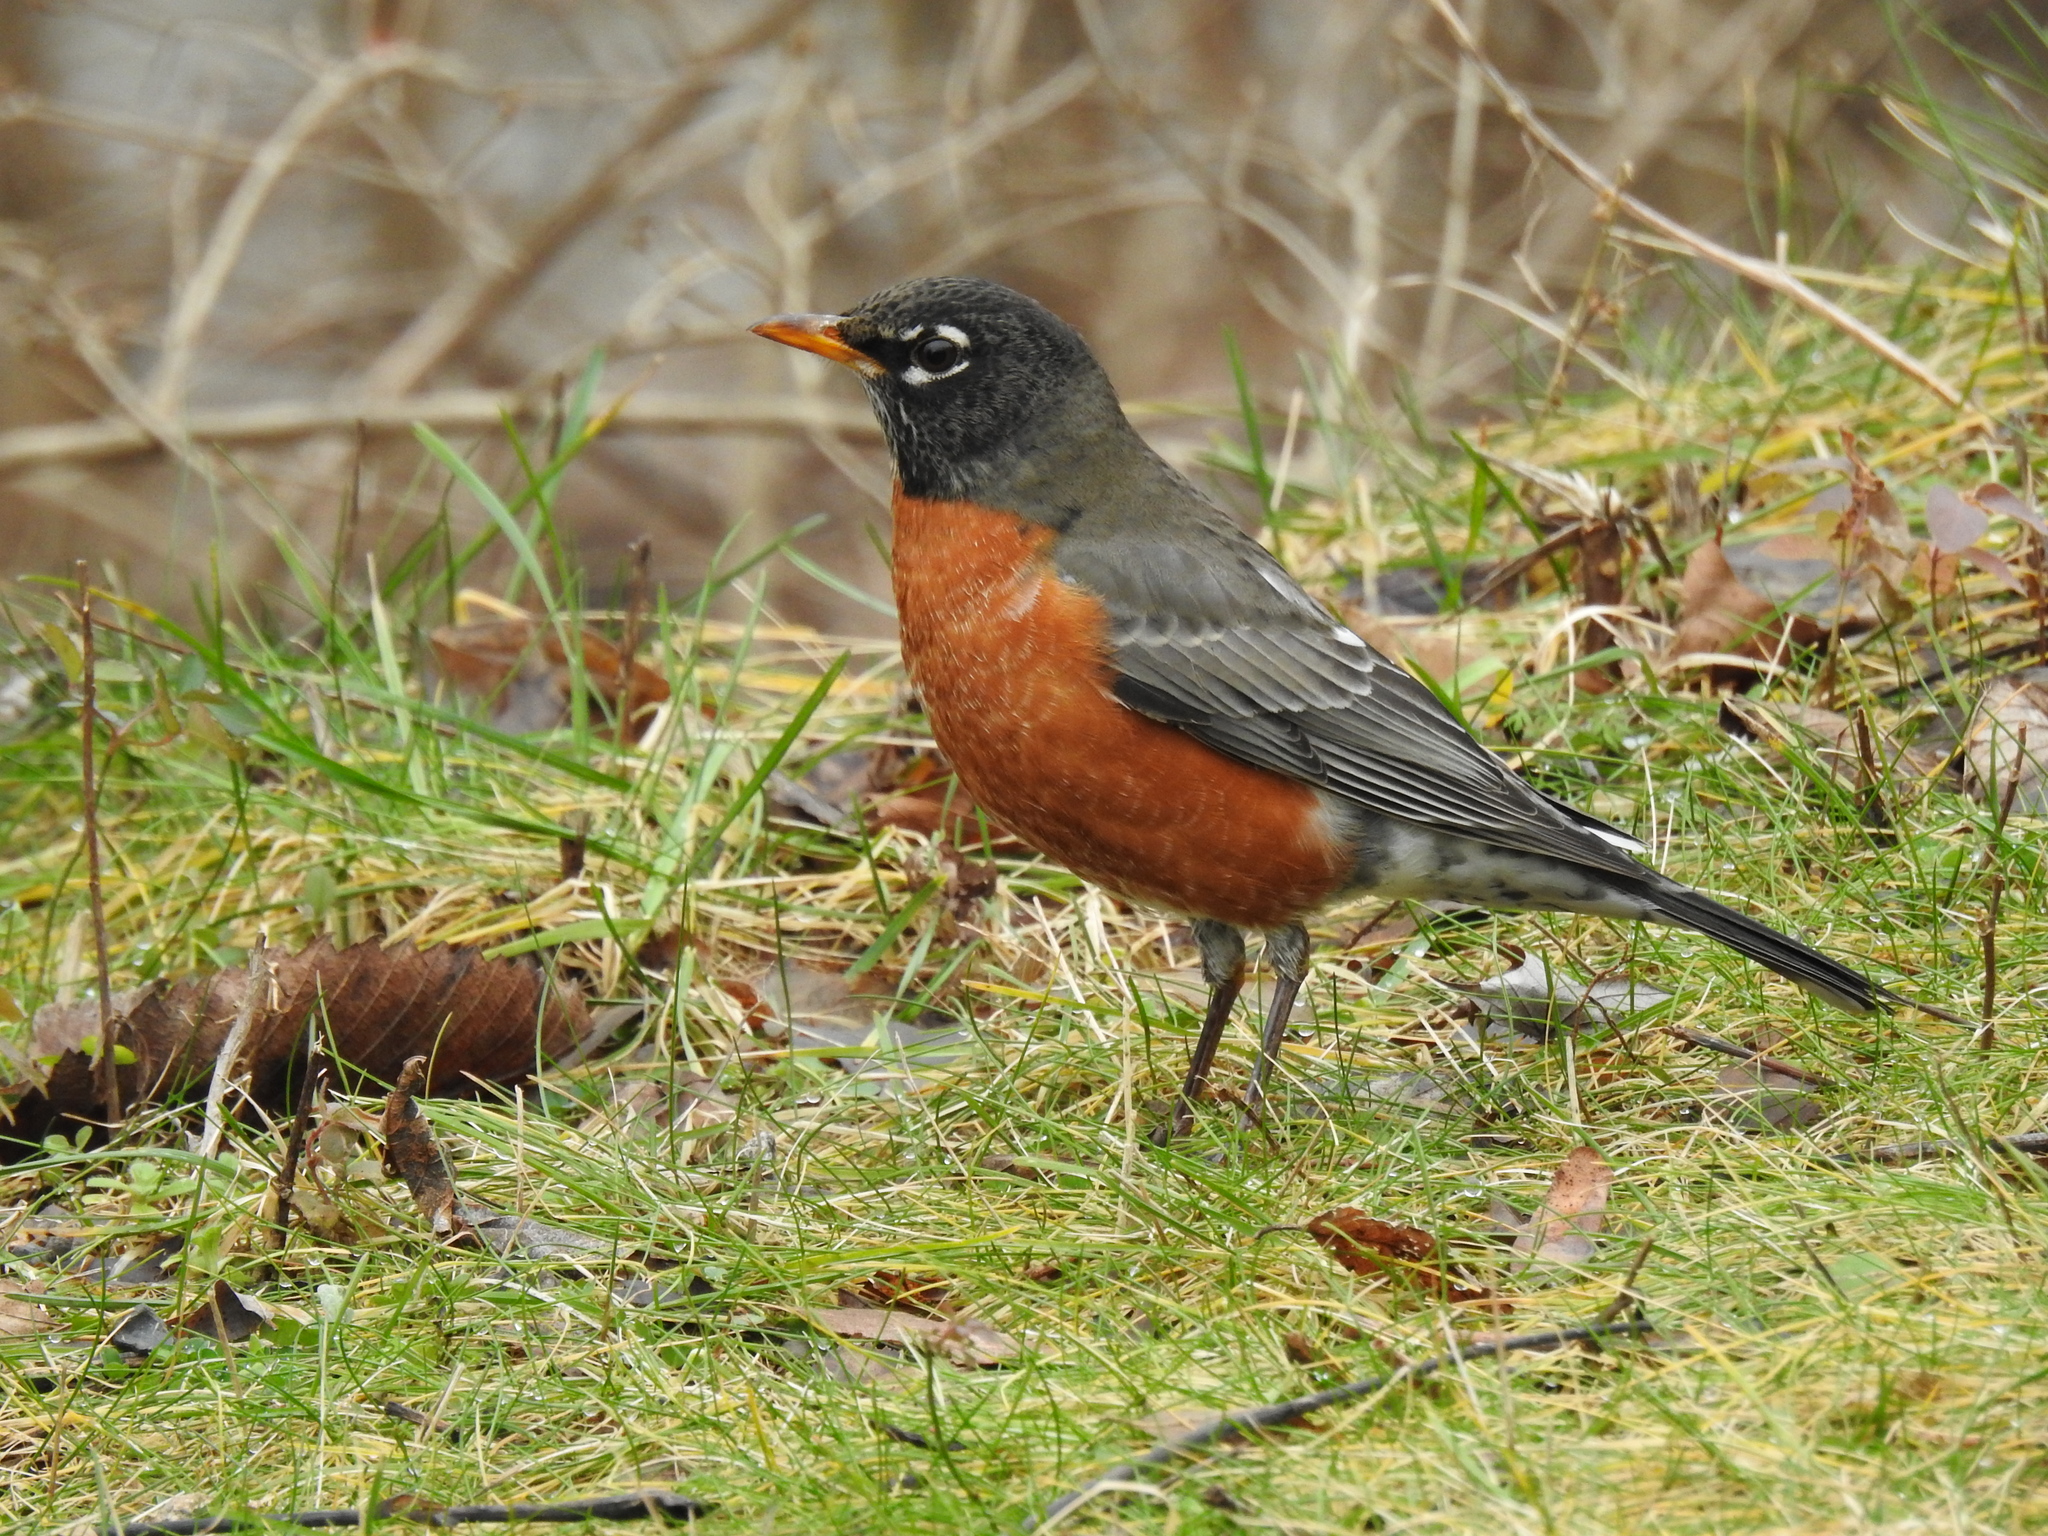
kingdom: Animalia
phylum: Chordata
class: Aves
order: Passeriformes
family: Turdidae
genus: Turdus
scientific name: Turdus migratorius
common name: American robin
